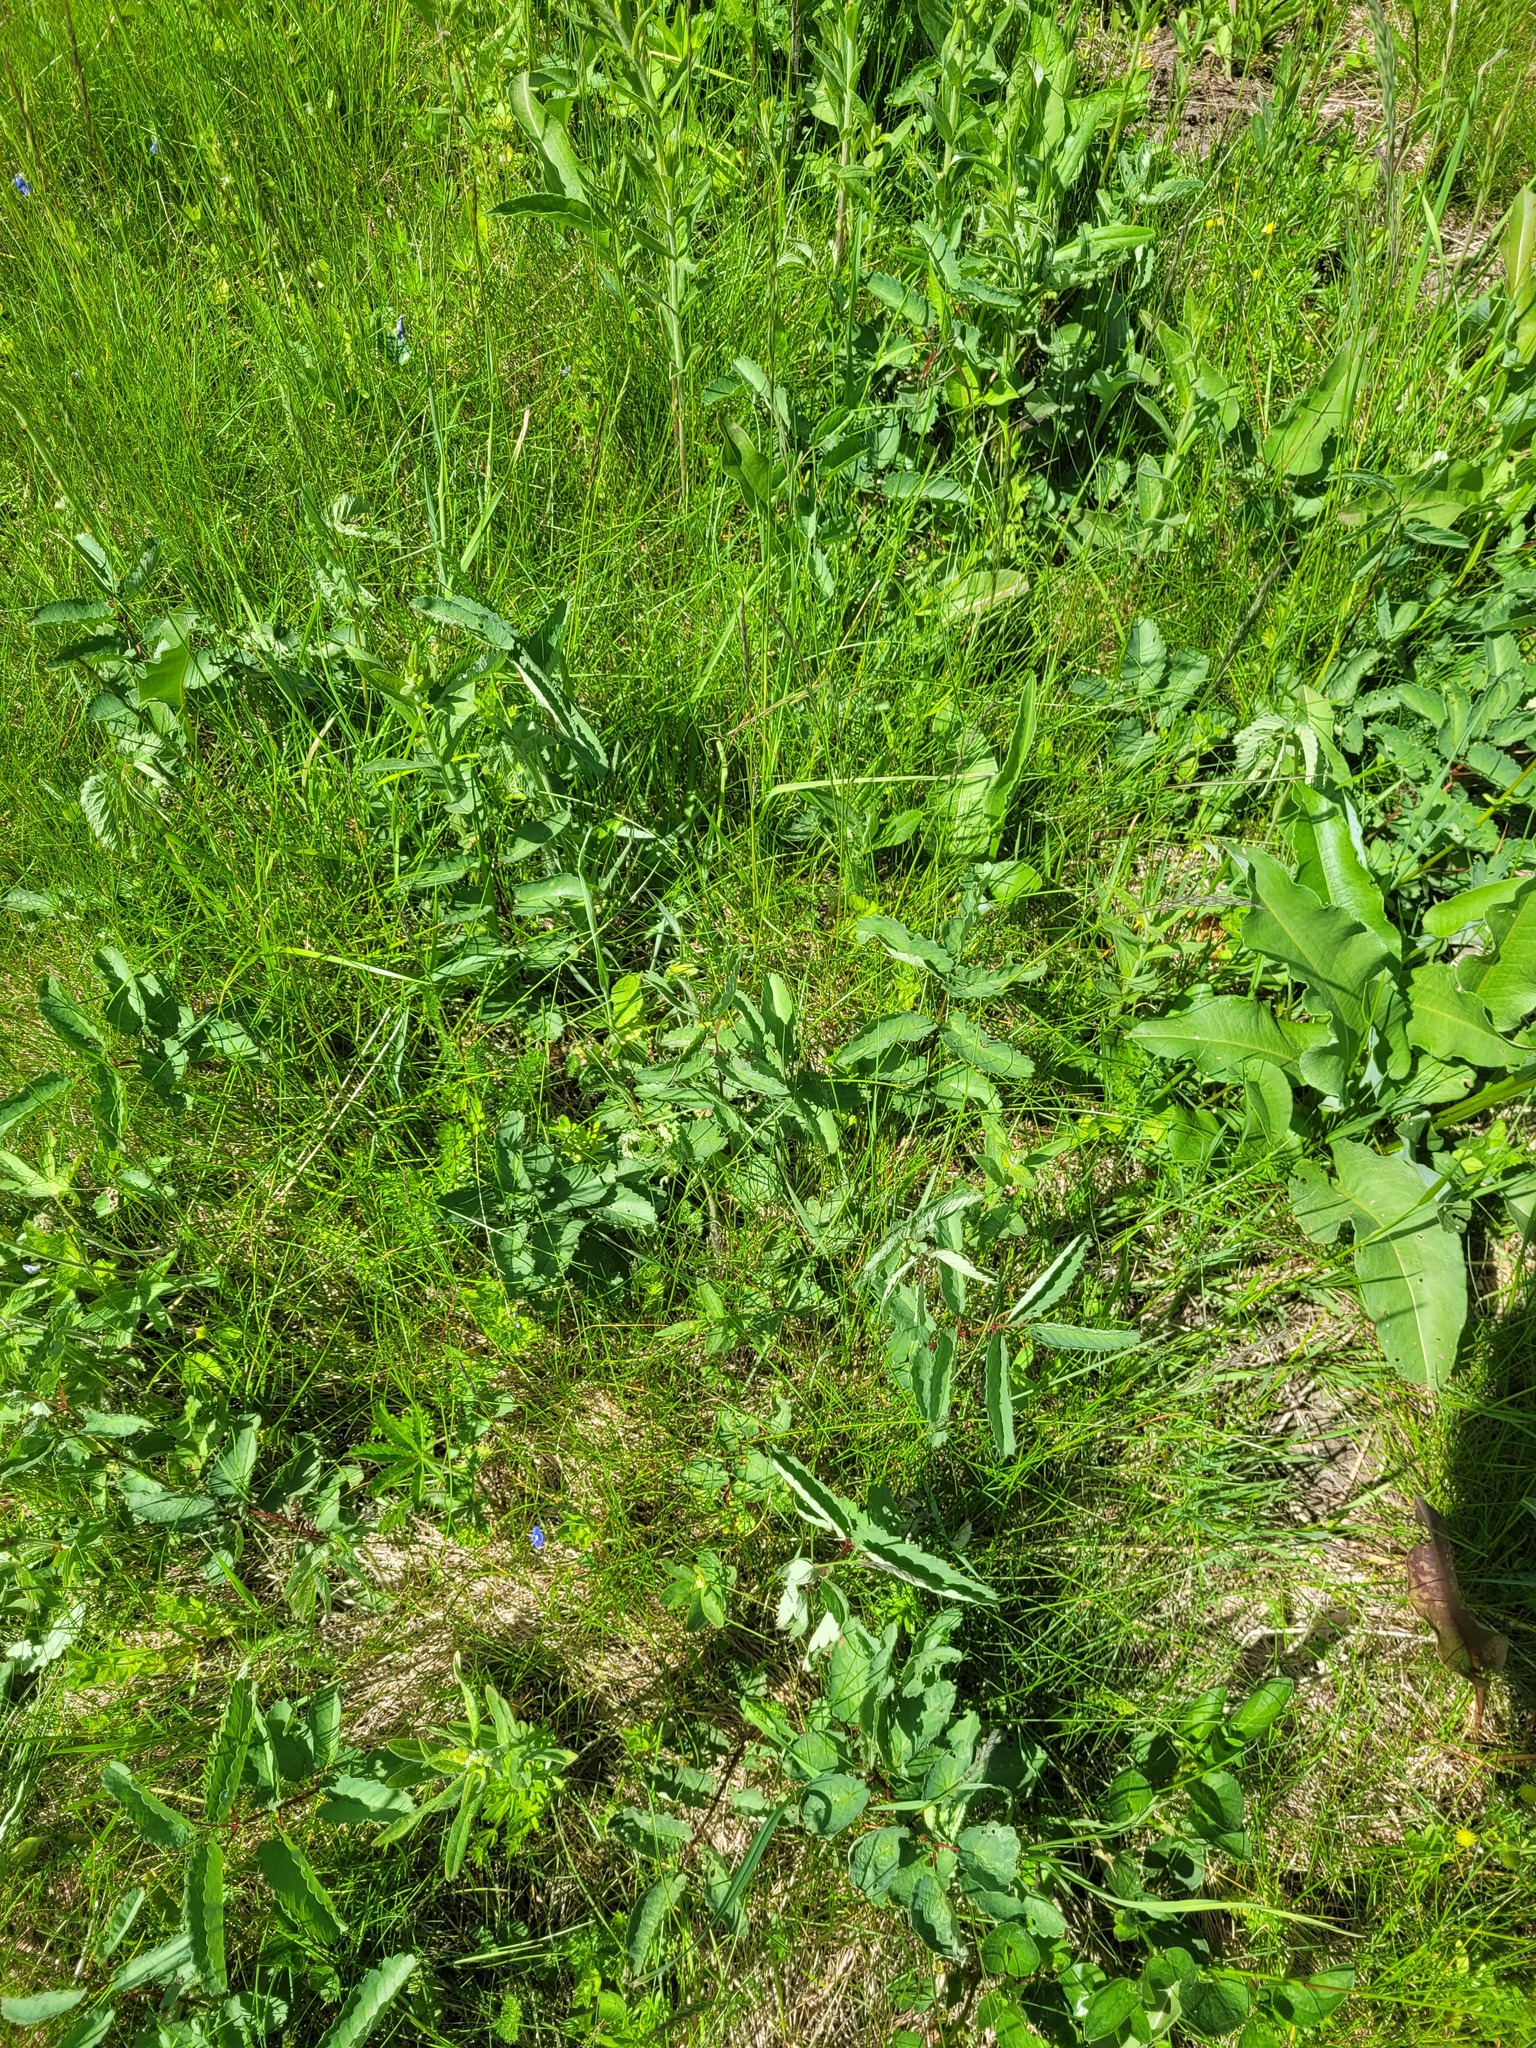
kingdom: Plantae
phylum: Tracheophyta
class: Magnoliopsida
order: Rosales
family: Rosaceae
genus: Sanguisorba
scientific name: Sanguisorba officinalis
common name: Great burnet
